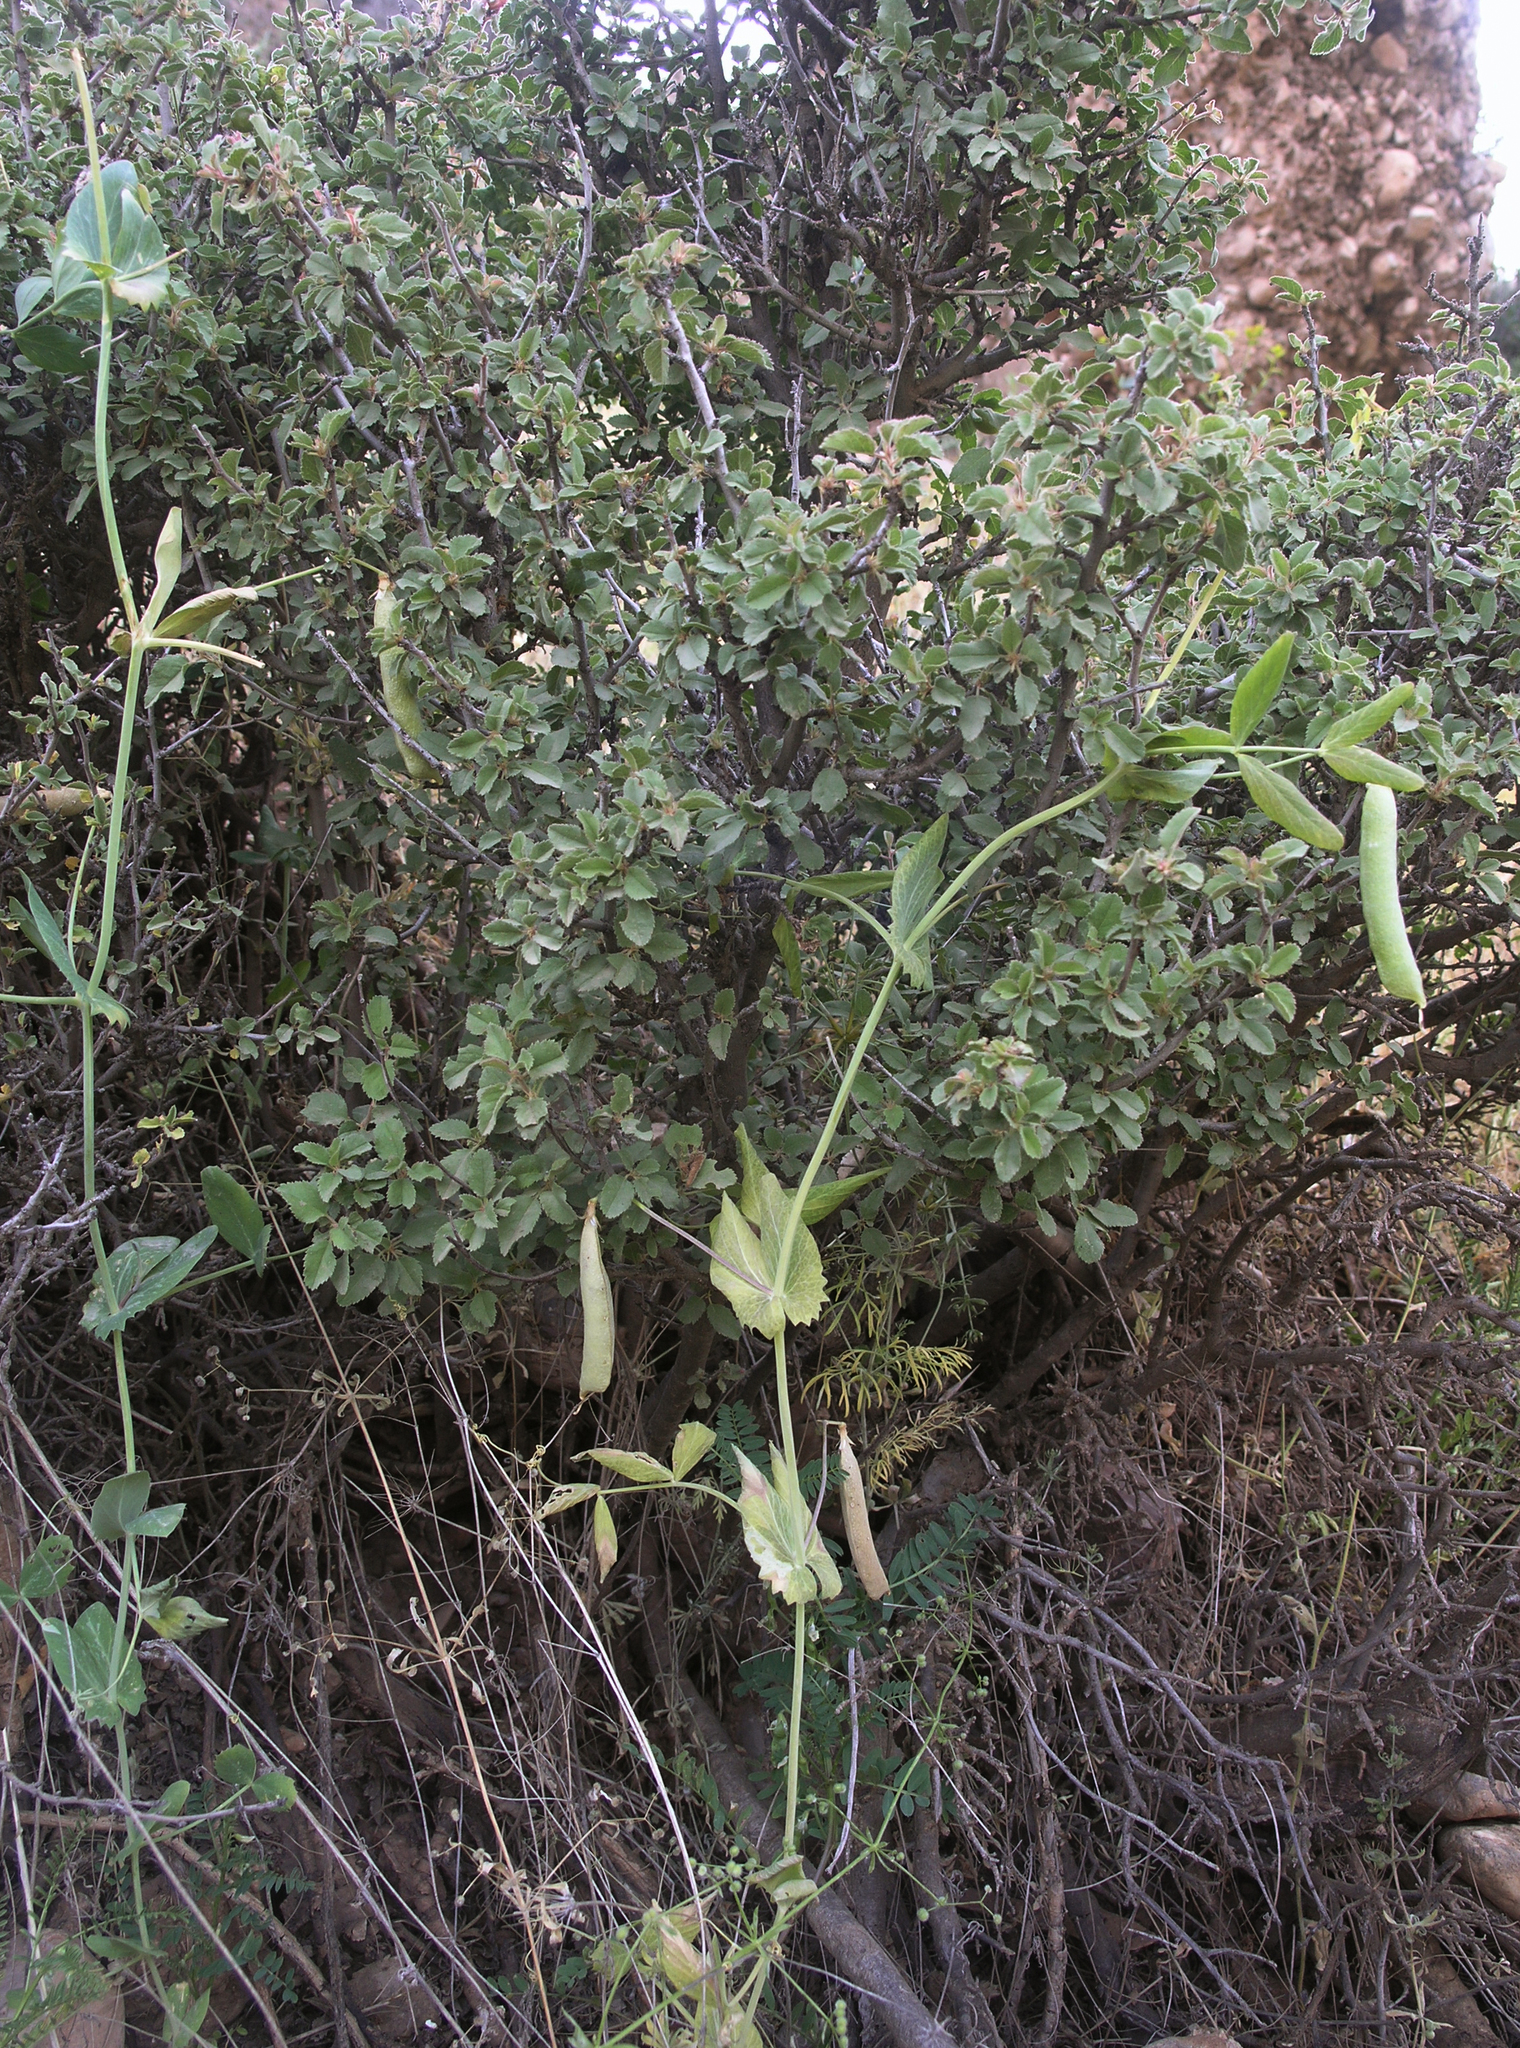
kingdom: Plantae
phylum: Tracheophyta
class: Magnoliopsida
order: Fabales
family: Fabaceae
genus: Lathyrus
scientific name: Lathyrus oleraceus
